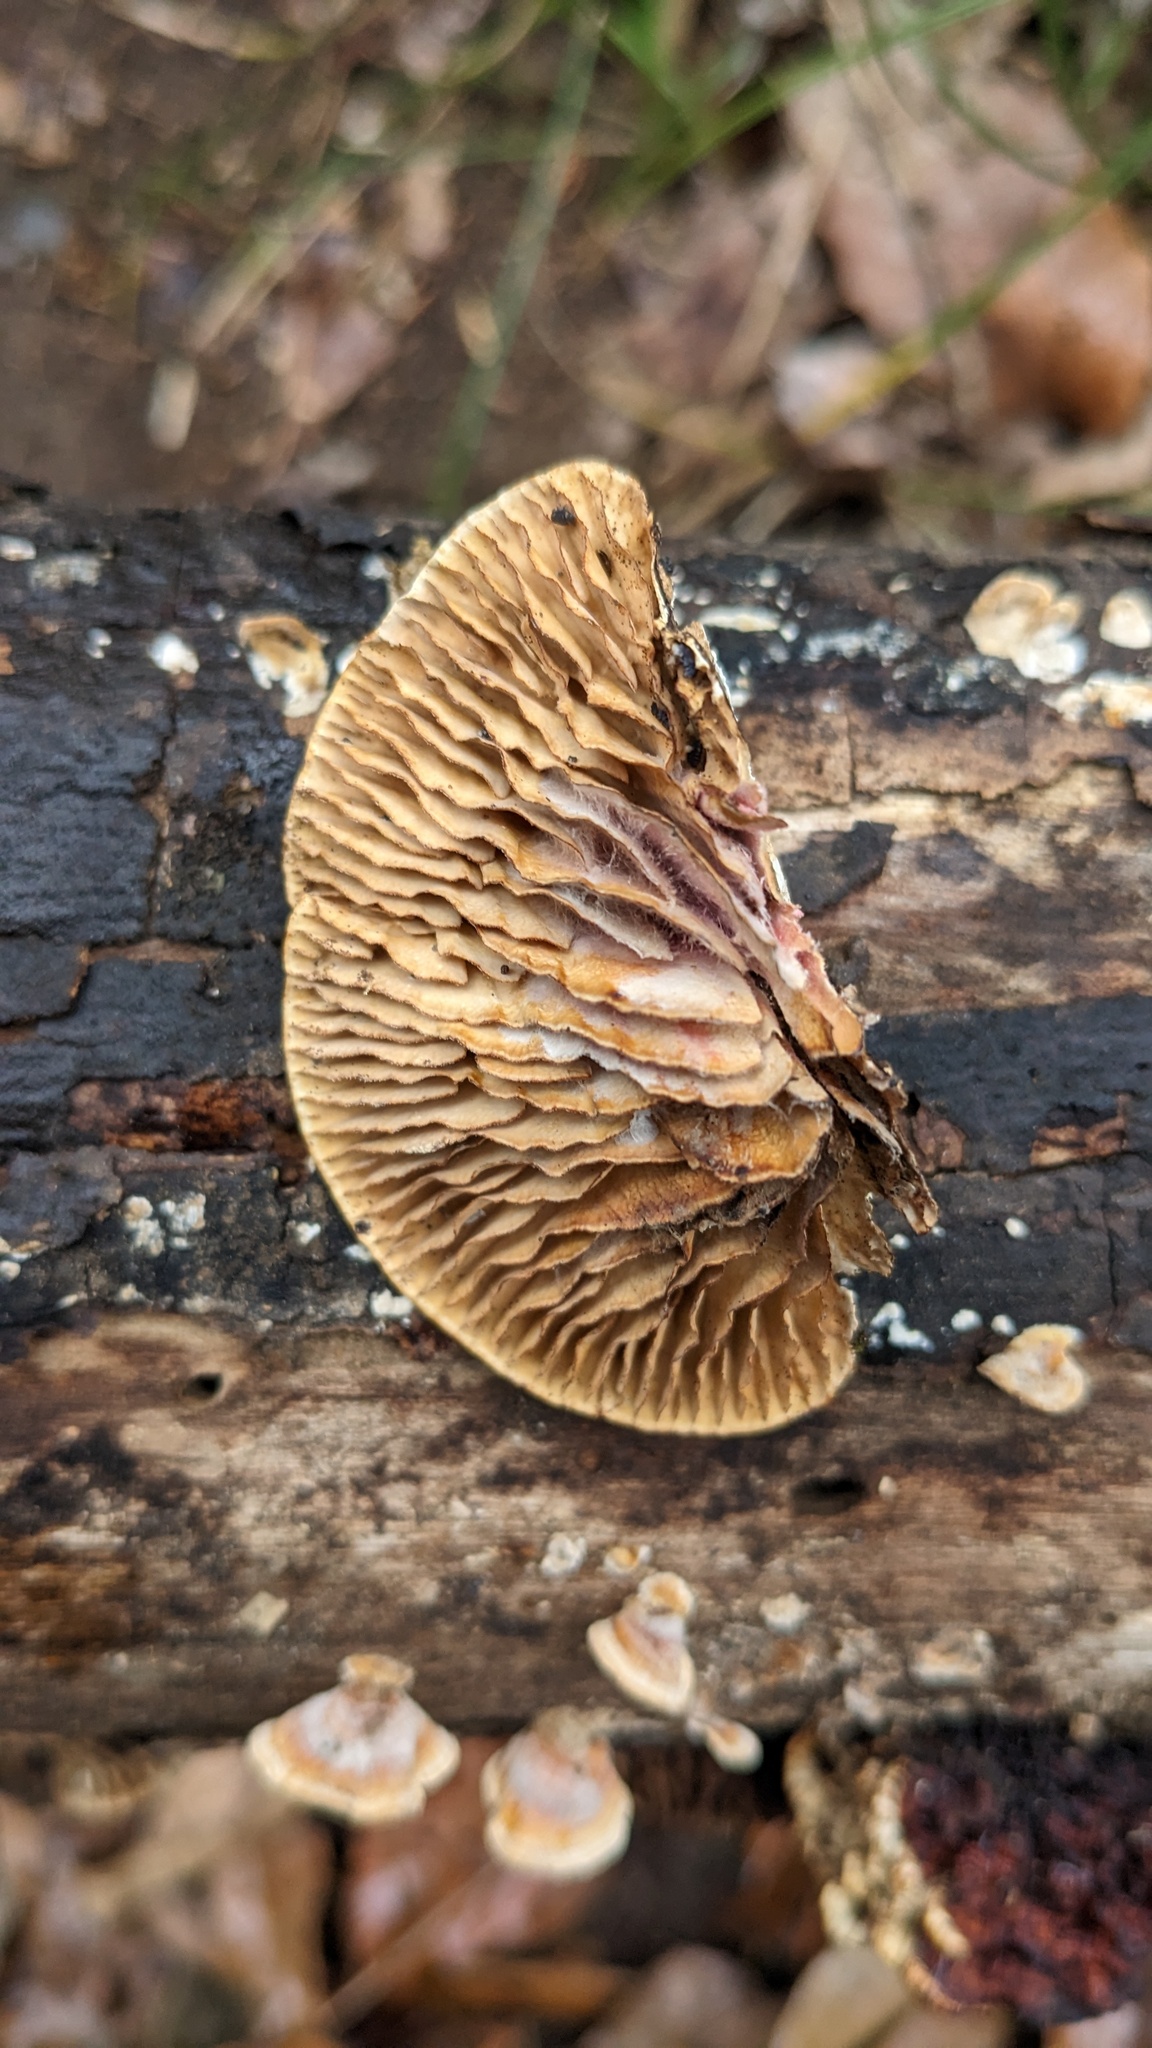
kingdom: Fungi
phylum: Basidiomycota
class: Agaricomycetes
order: Polyporales
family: Polyporaceae
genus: Lenzites
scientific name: Lenzites styracinus
